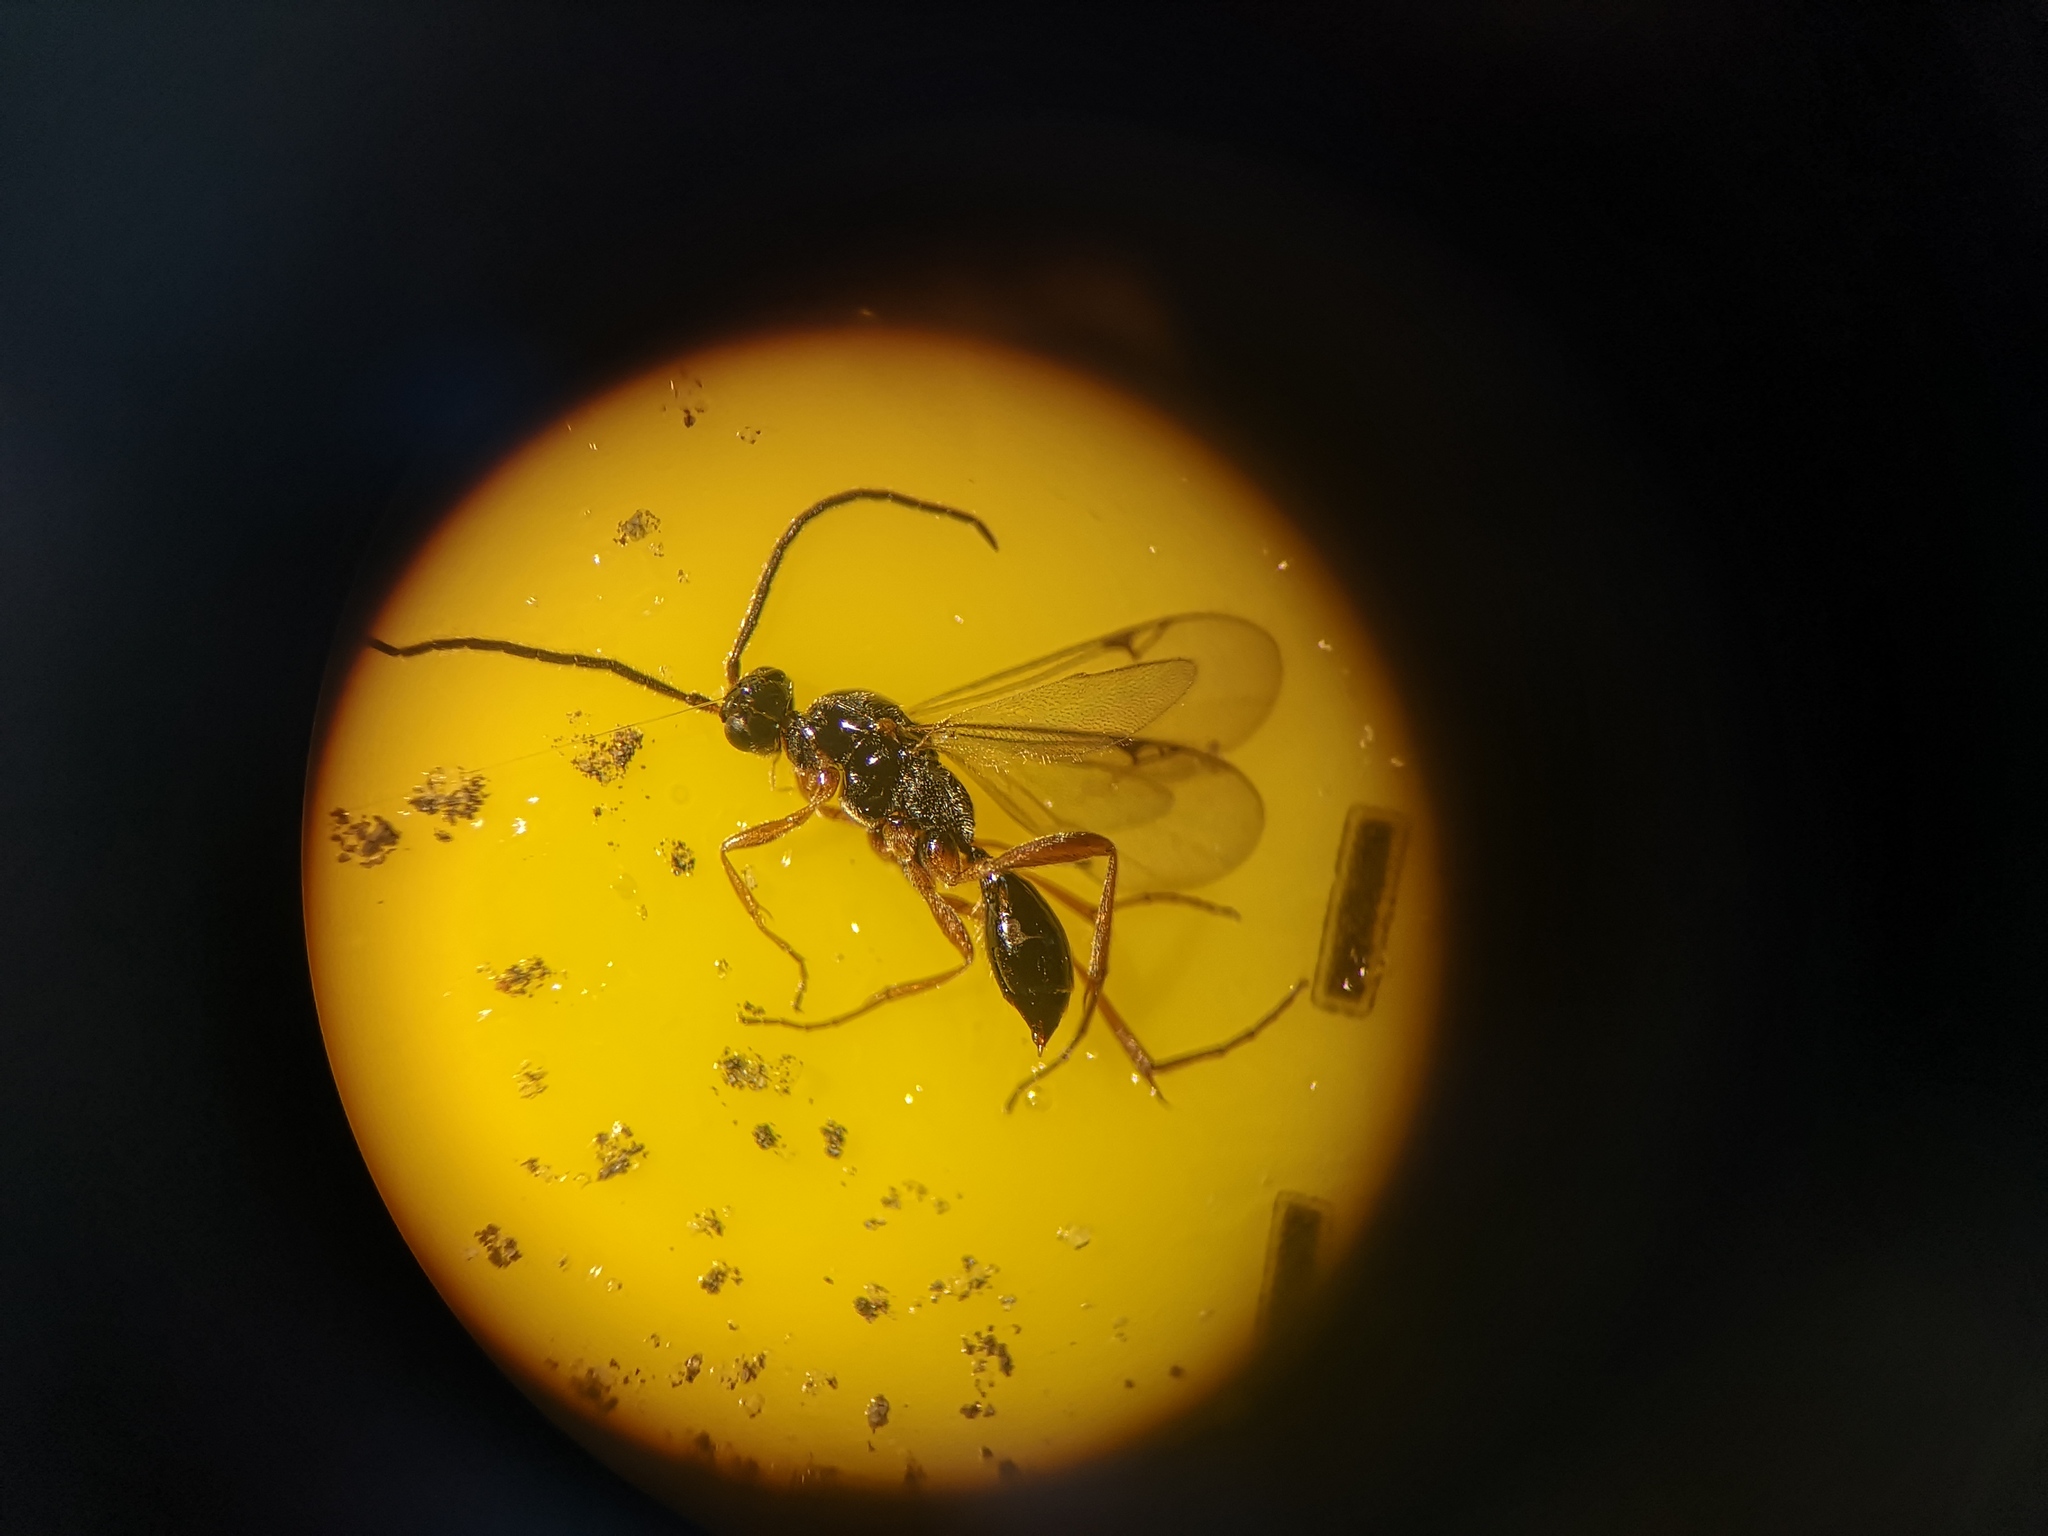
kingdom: Animalia
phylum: Arthropoda
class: Insecta
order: Hymenoptera
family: Proctotrupidae
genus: Phaneroserphus
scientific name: Phaneroserphus calcar
